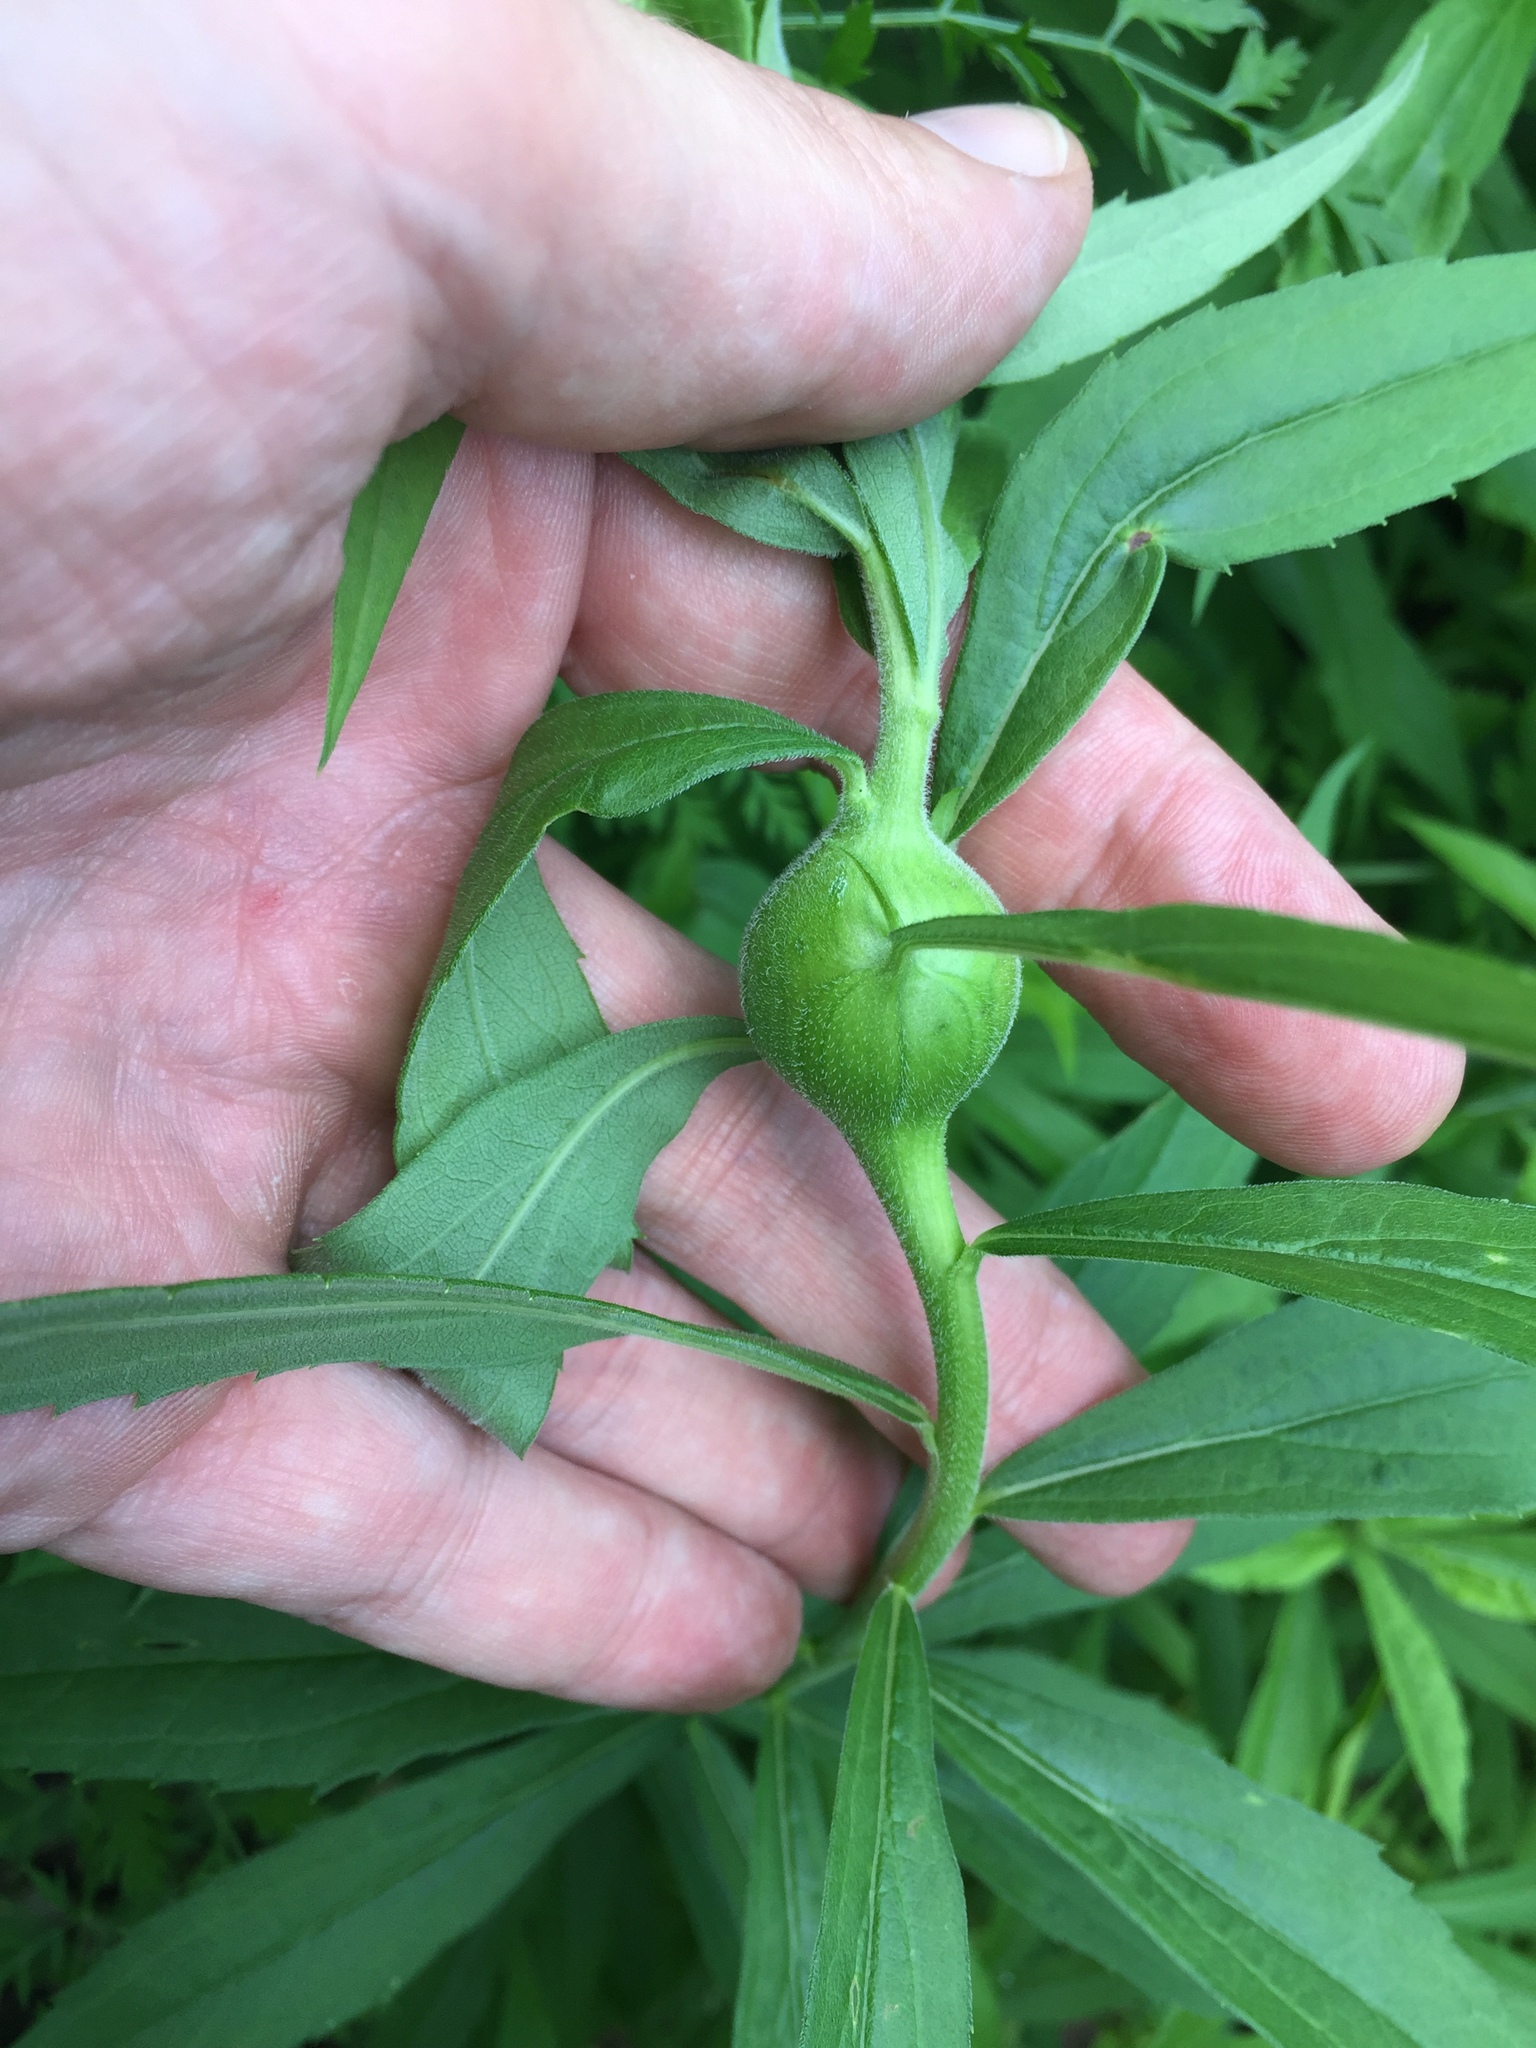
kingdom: Animalia
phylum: Arthropoda
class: Insecta
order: Diptera
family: Tephritidae
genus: Eurosta
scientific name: Eurosta solidaginis
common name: Goldenrod gall fly
